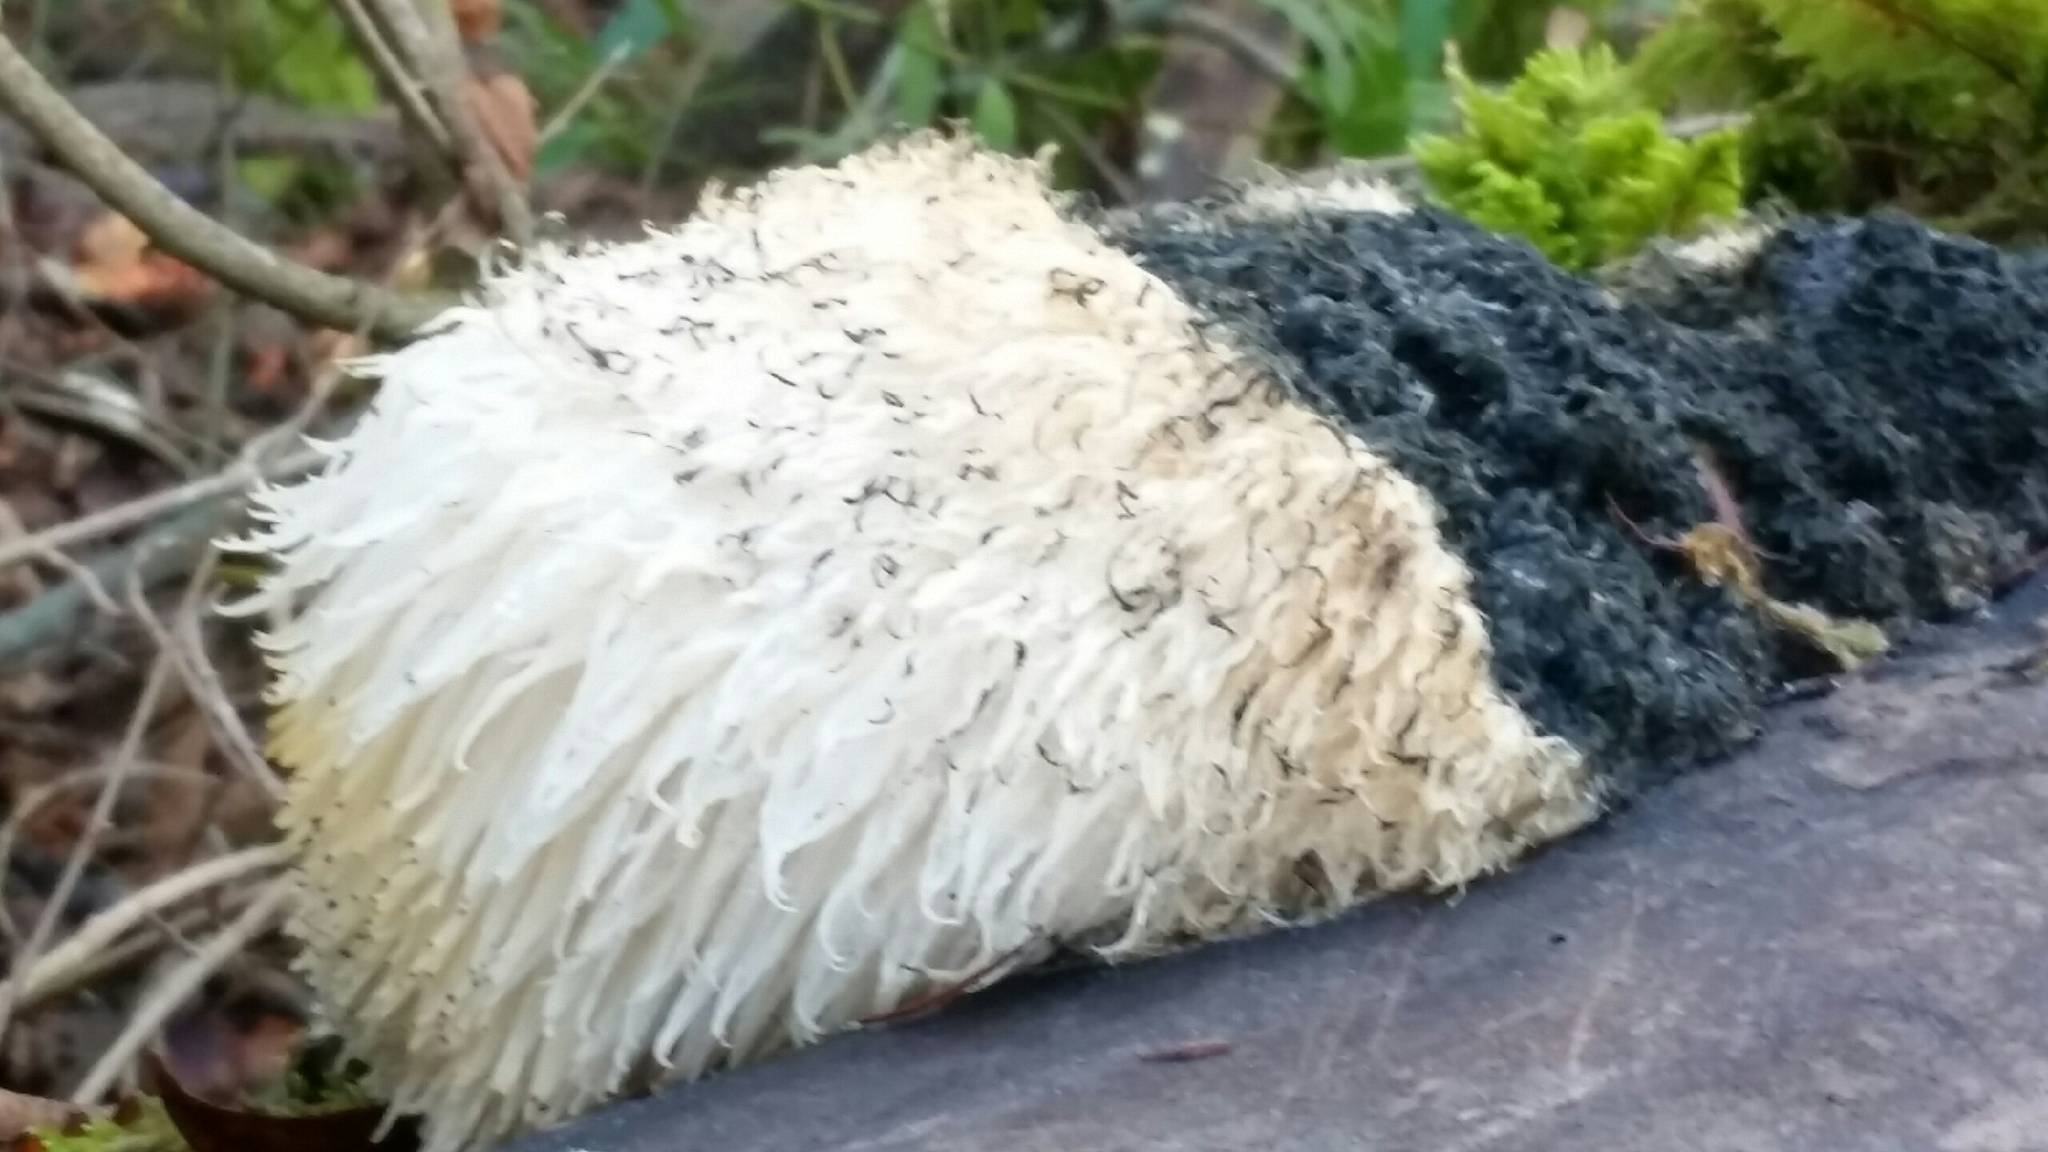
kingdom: Fungi
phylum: Basidiomycota
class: Agaricomycetes
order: Russulales
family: Hericiaceae
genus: Hericium
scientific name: Hericium erinaceus
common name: Bearded tooth
